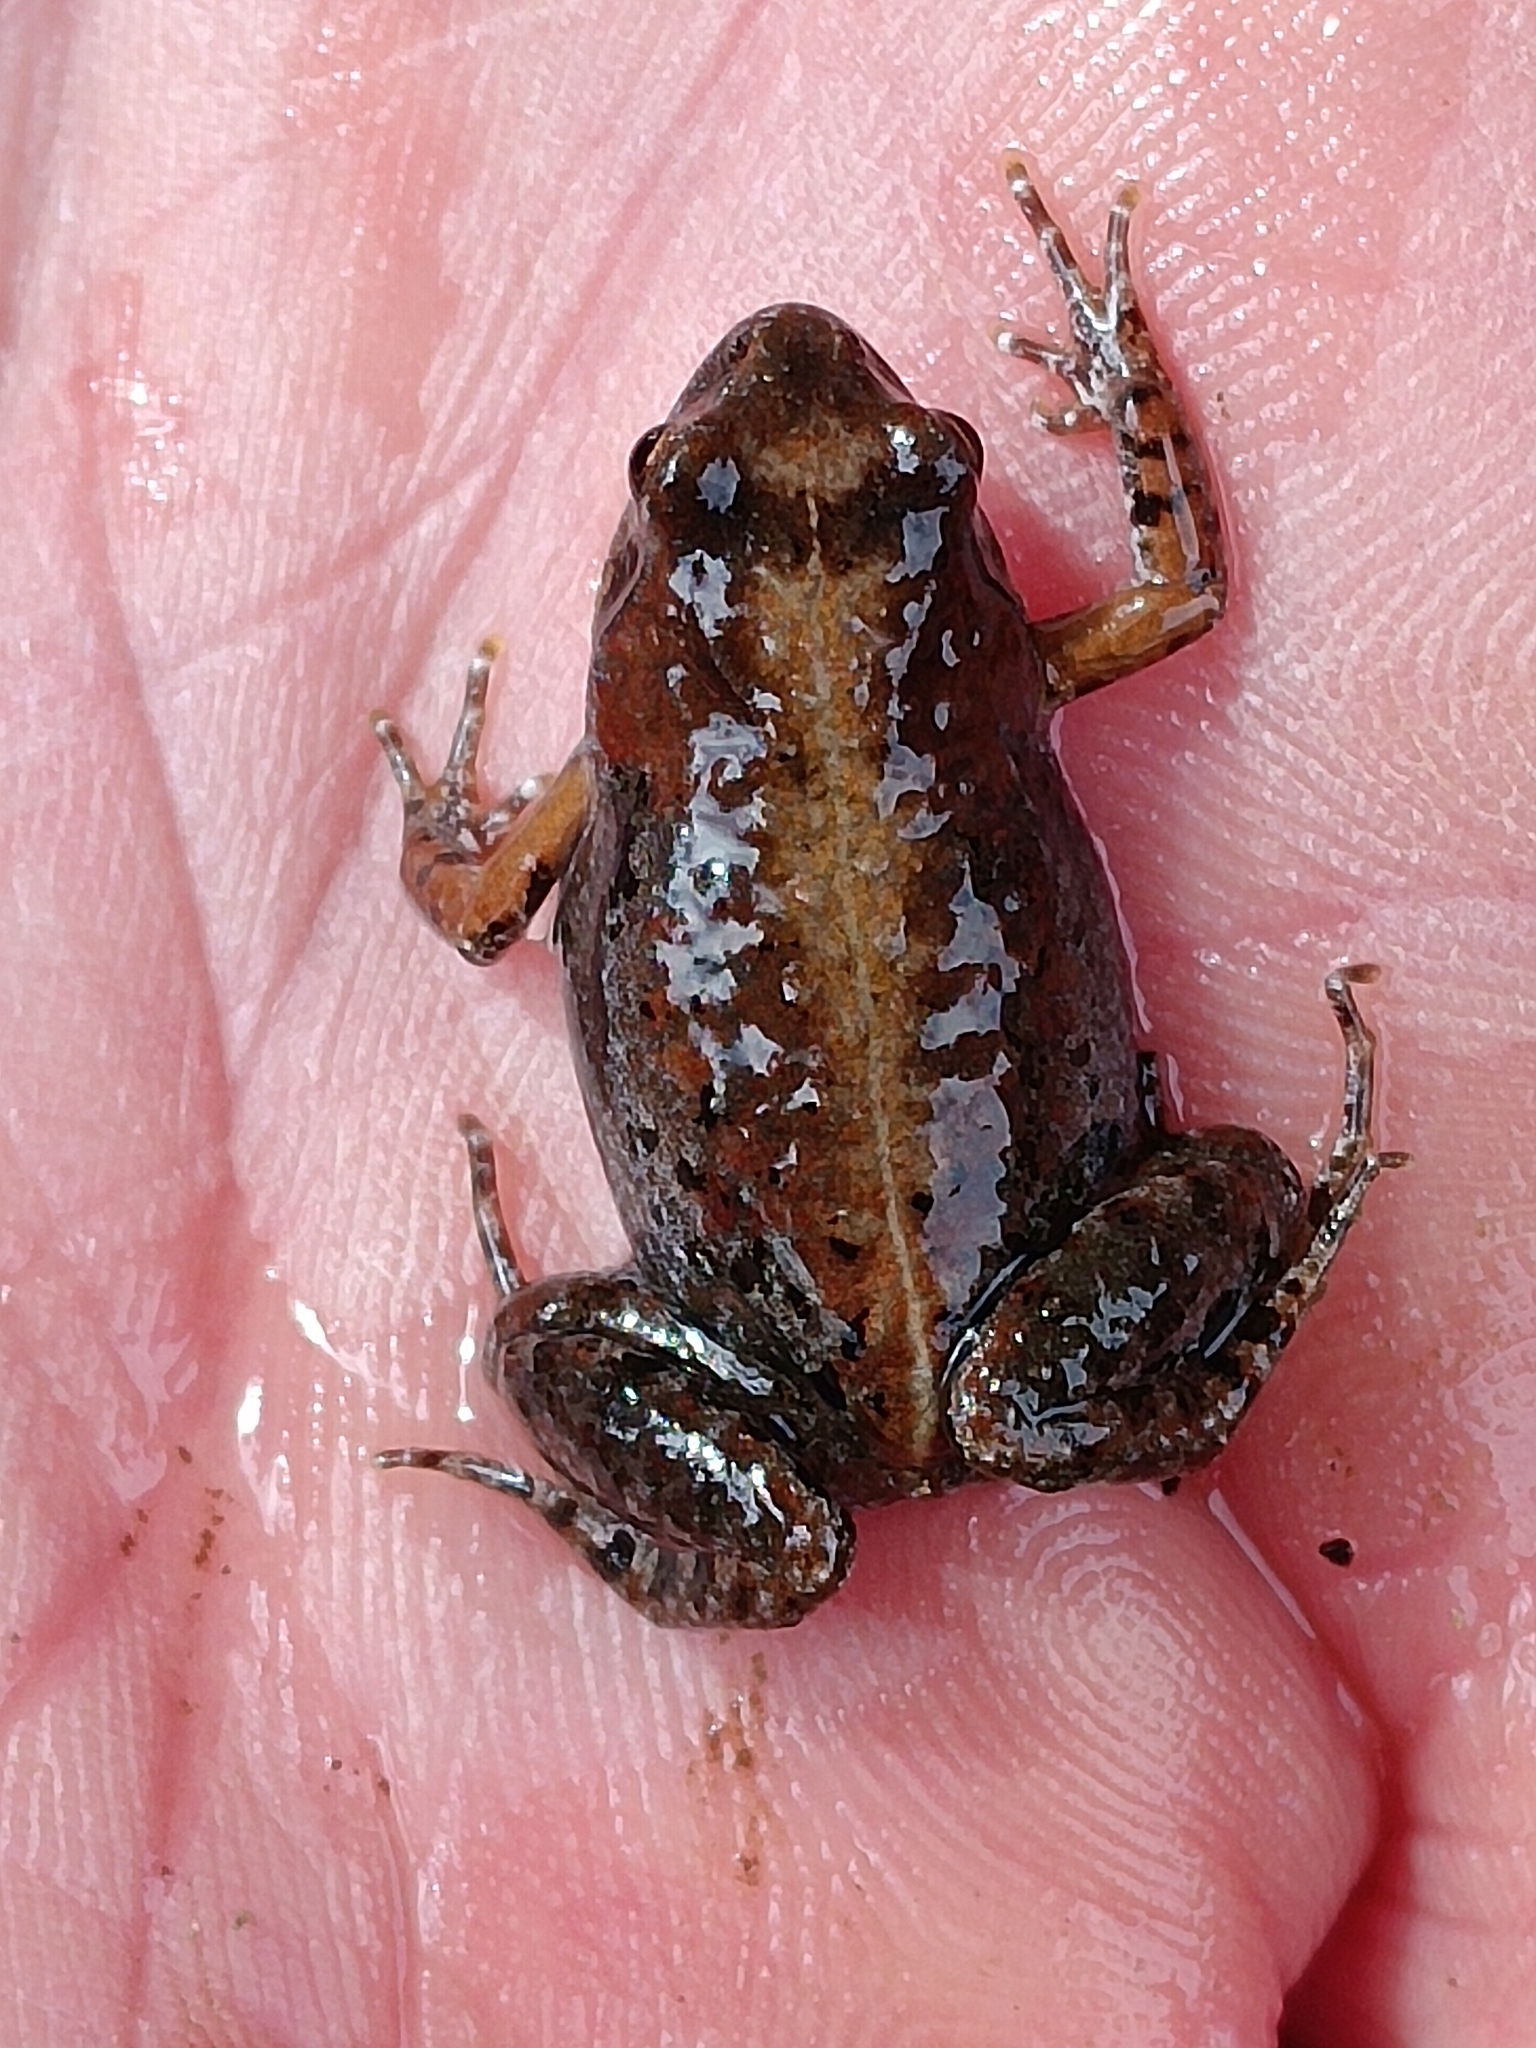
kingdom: Animalia
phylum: Chordata
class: Amphibia
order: Anura
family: Pyxicephalidae
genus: Cacosternum
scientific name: Cacosternum nanum
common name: Bronze dainty frog
